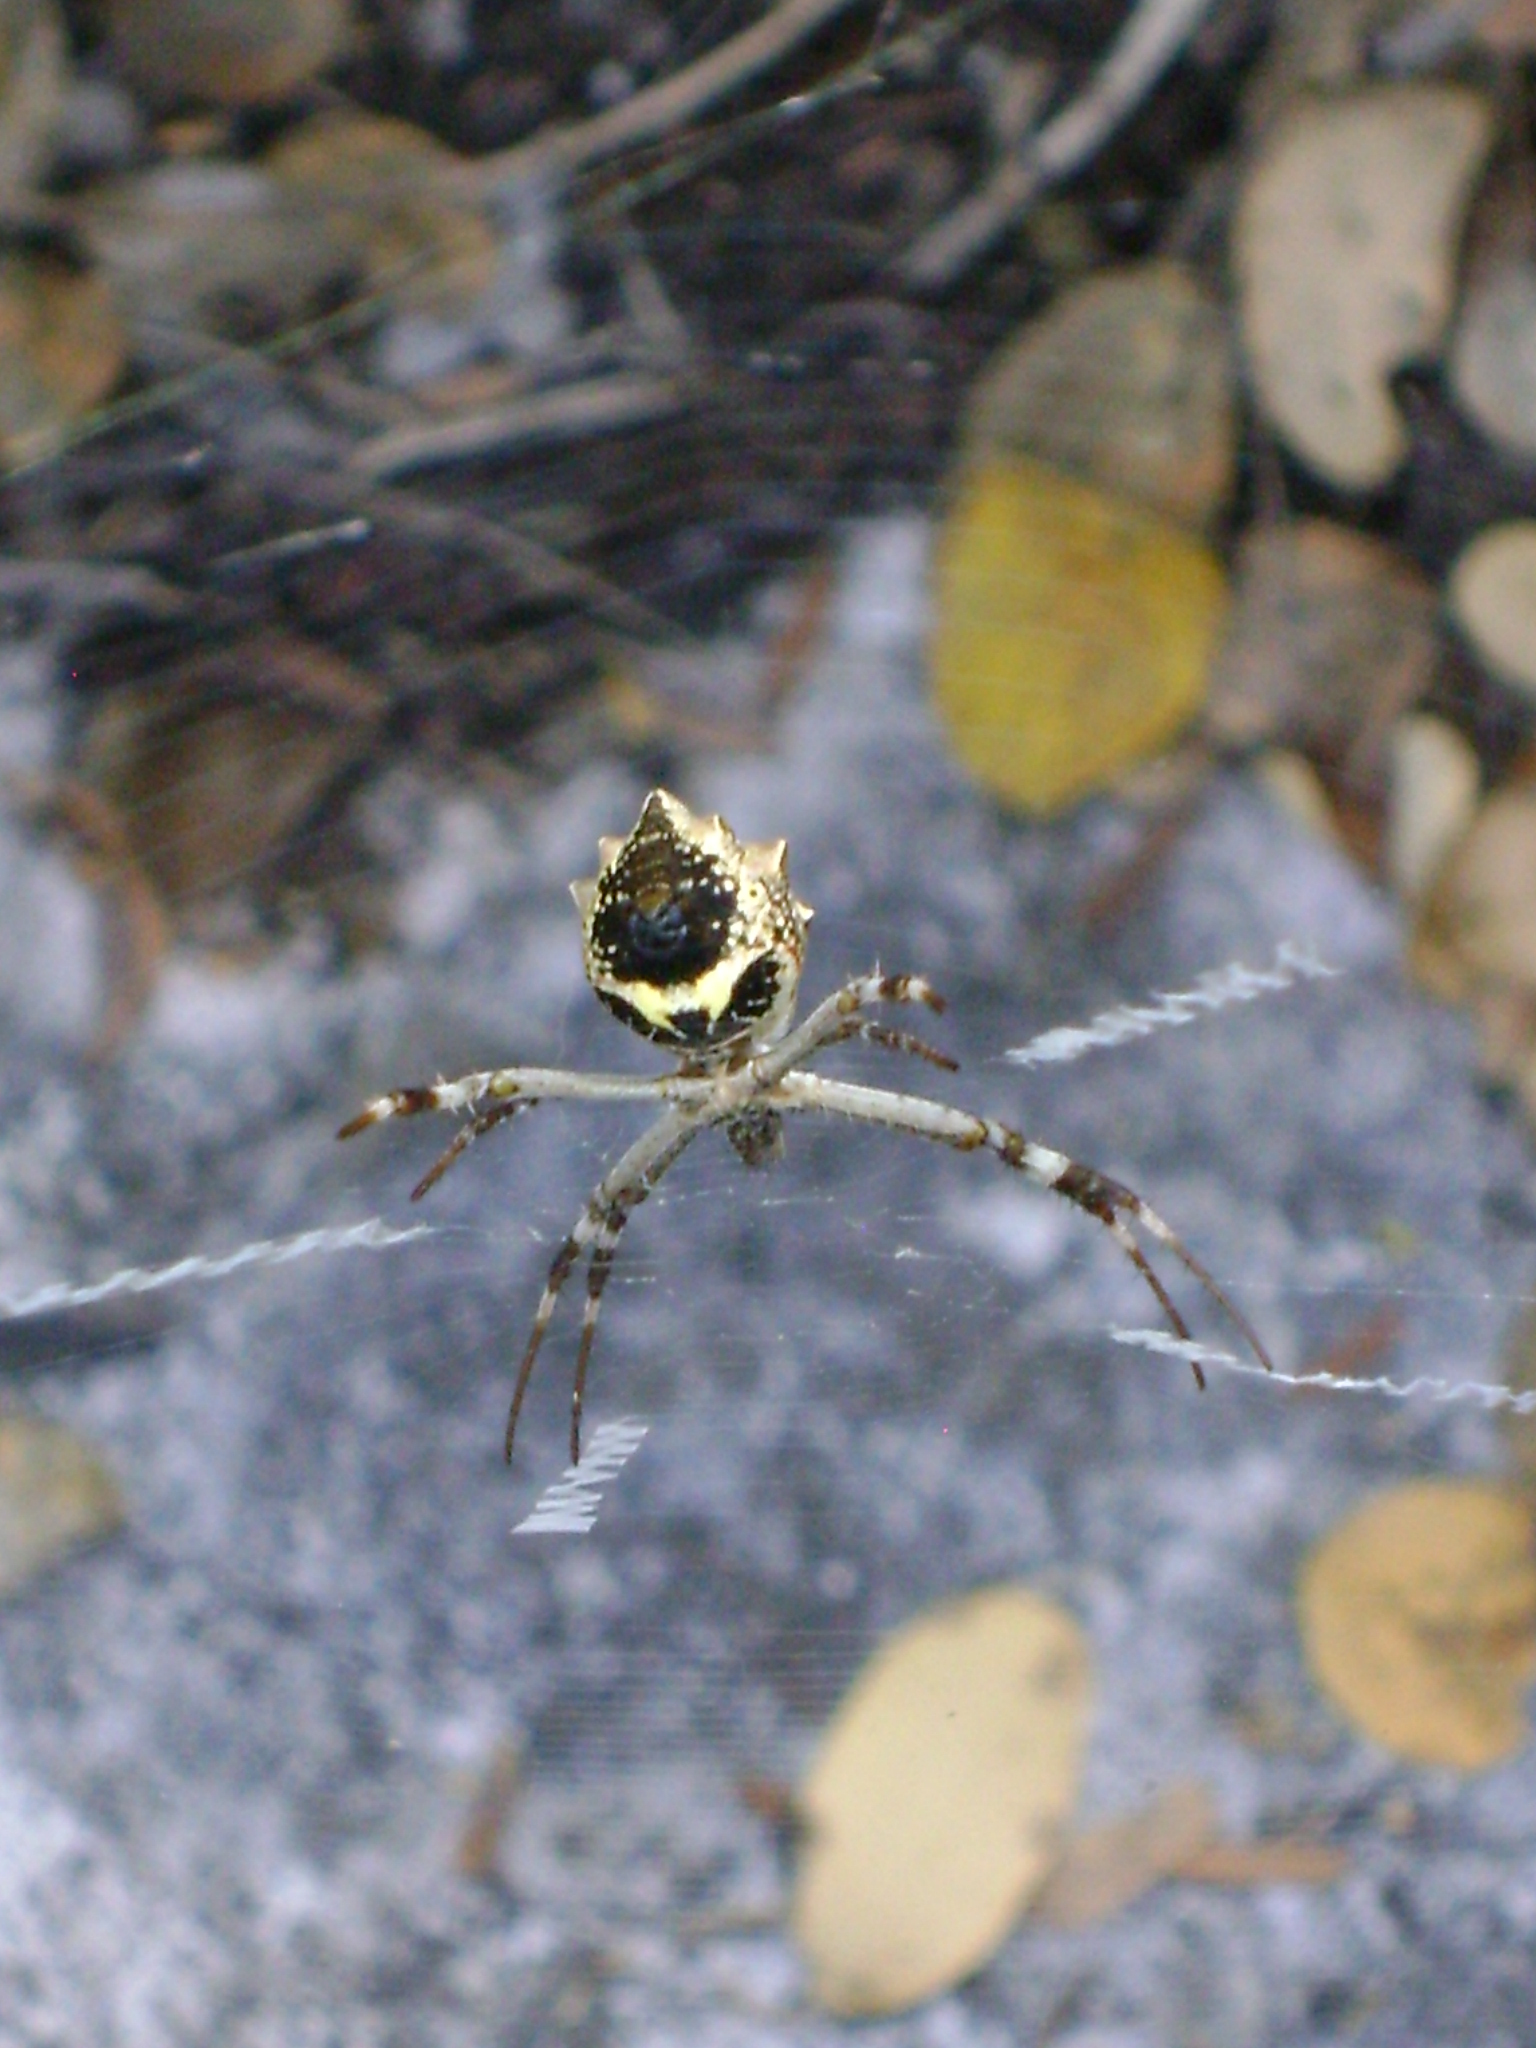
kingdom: Animalia
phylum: Arthropoda
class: Arachnida
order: Araneae
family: Araneidae
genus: Argiope
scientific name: Argiope argentata
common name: Orb weavers
